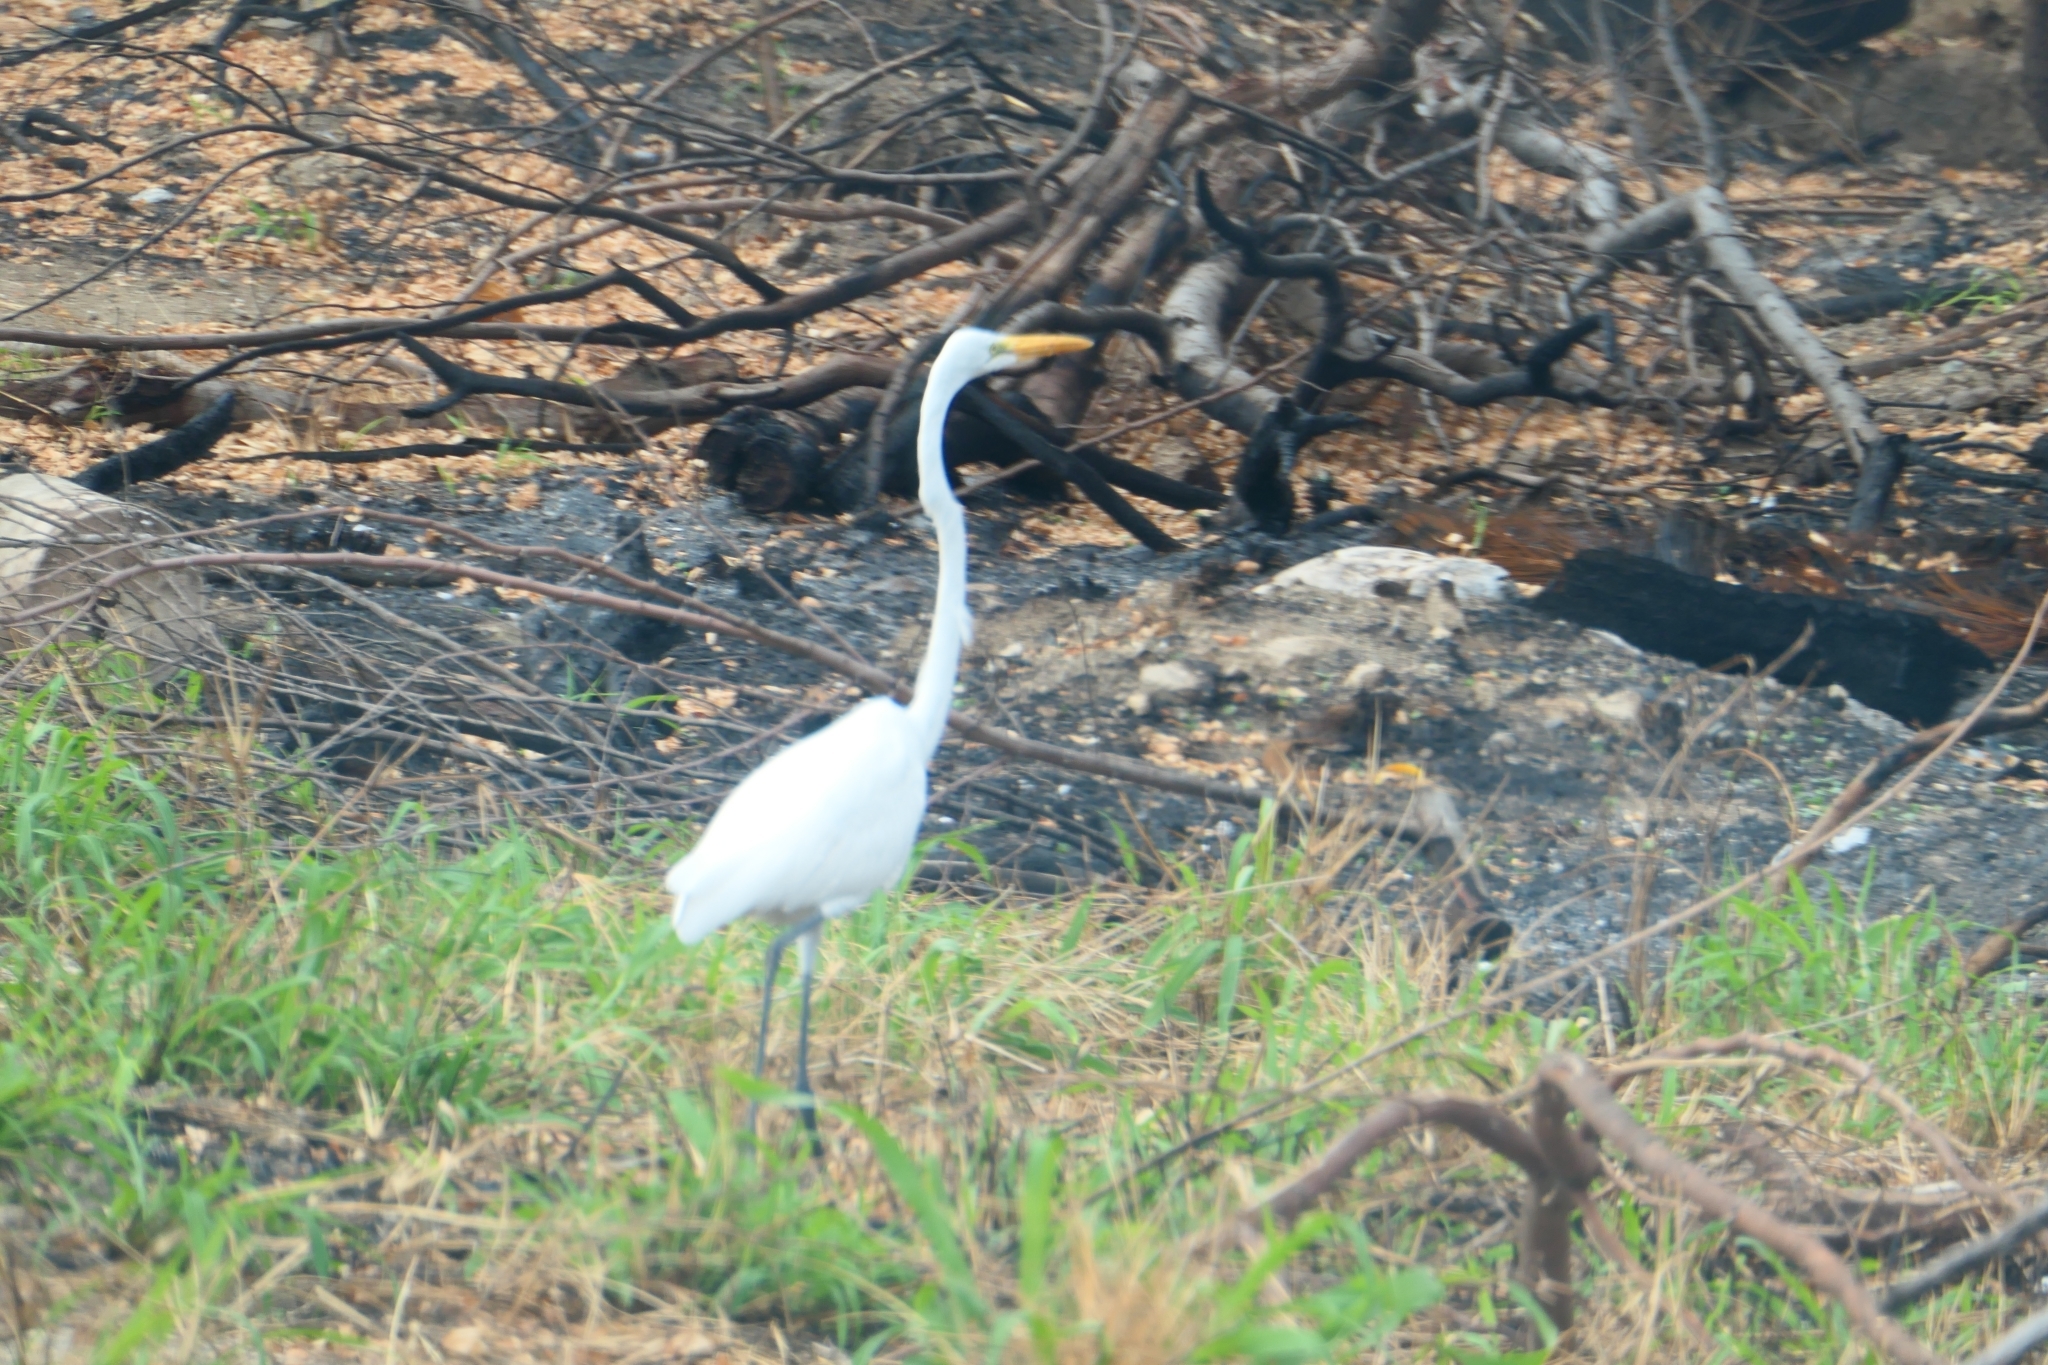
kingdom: Animalia
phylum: Chordata
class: Aves
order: Pelecaniformes
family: Ardeidae
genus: Ardea
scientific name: Ardea alba
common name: Great egret
